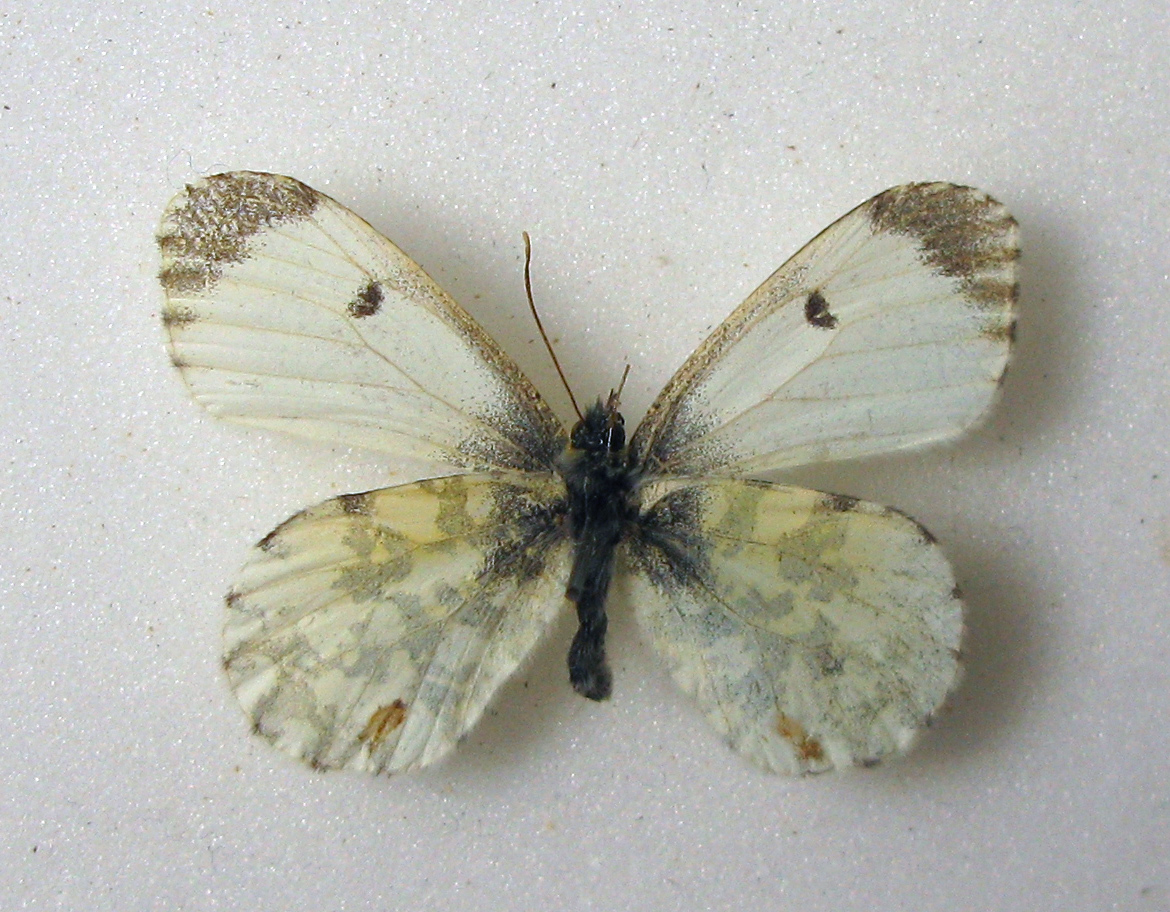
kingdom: Animalia
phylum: Arthropoda
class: Insecta
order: Lepidoptera
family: Pieridae
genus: Anthocharis
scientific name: Anthocharis cardamines
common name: Orange-tip
